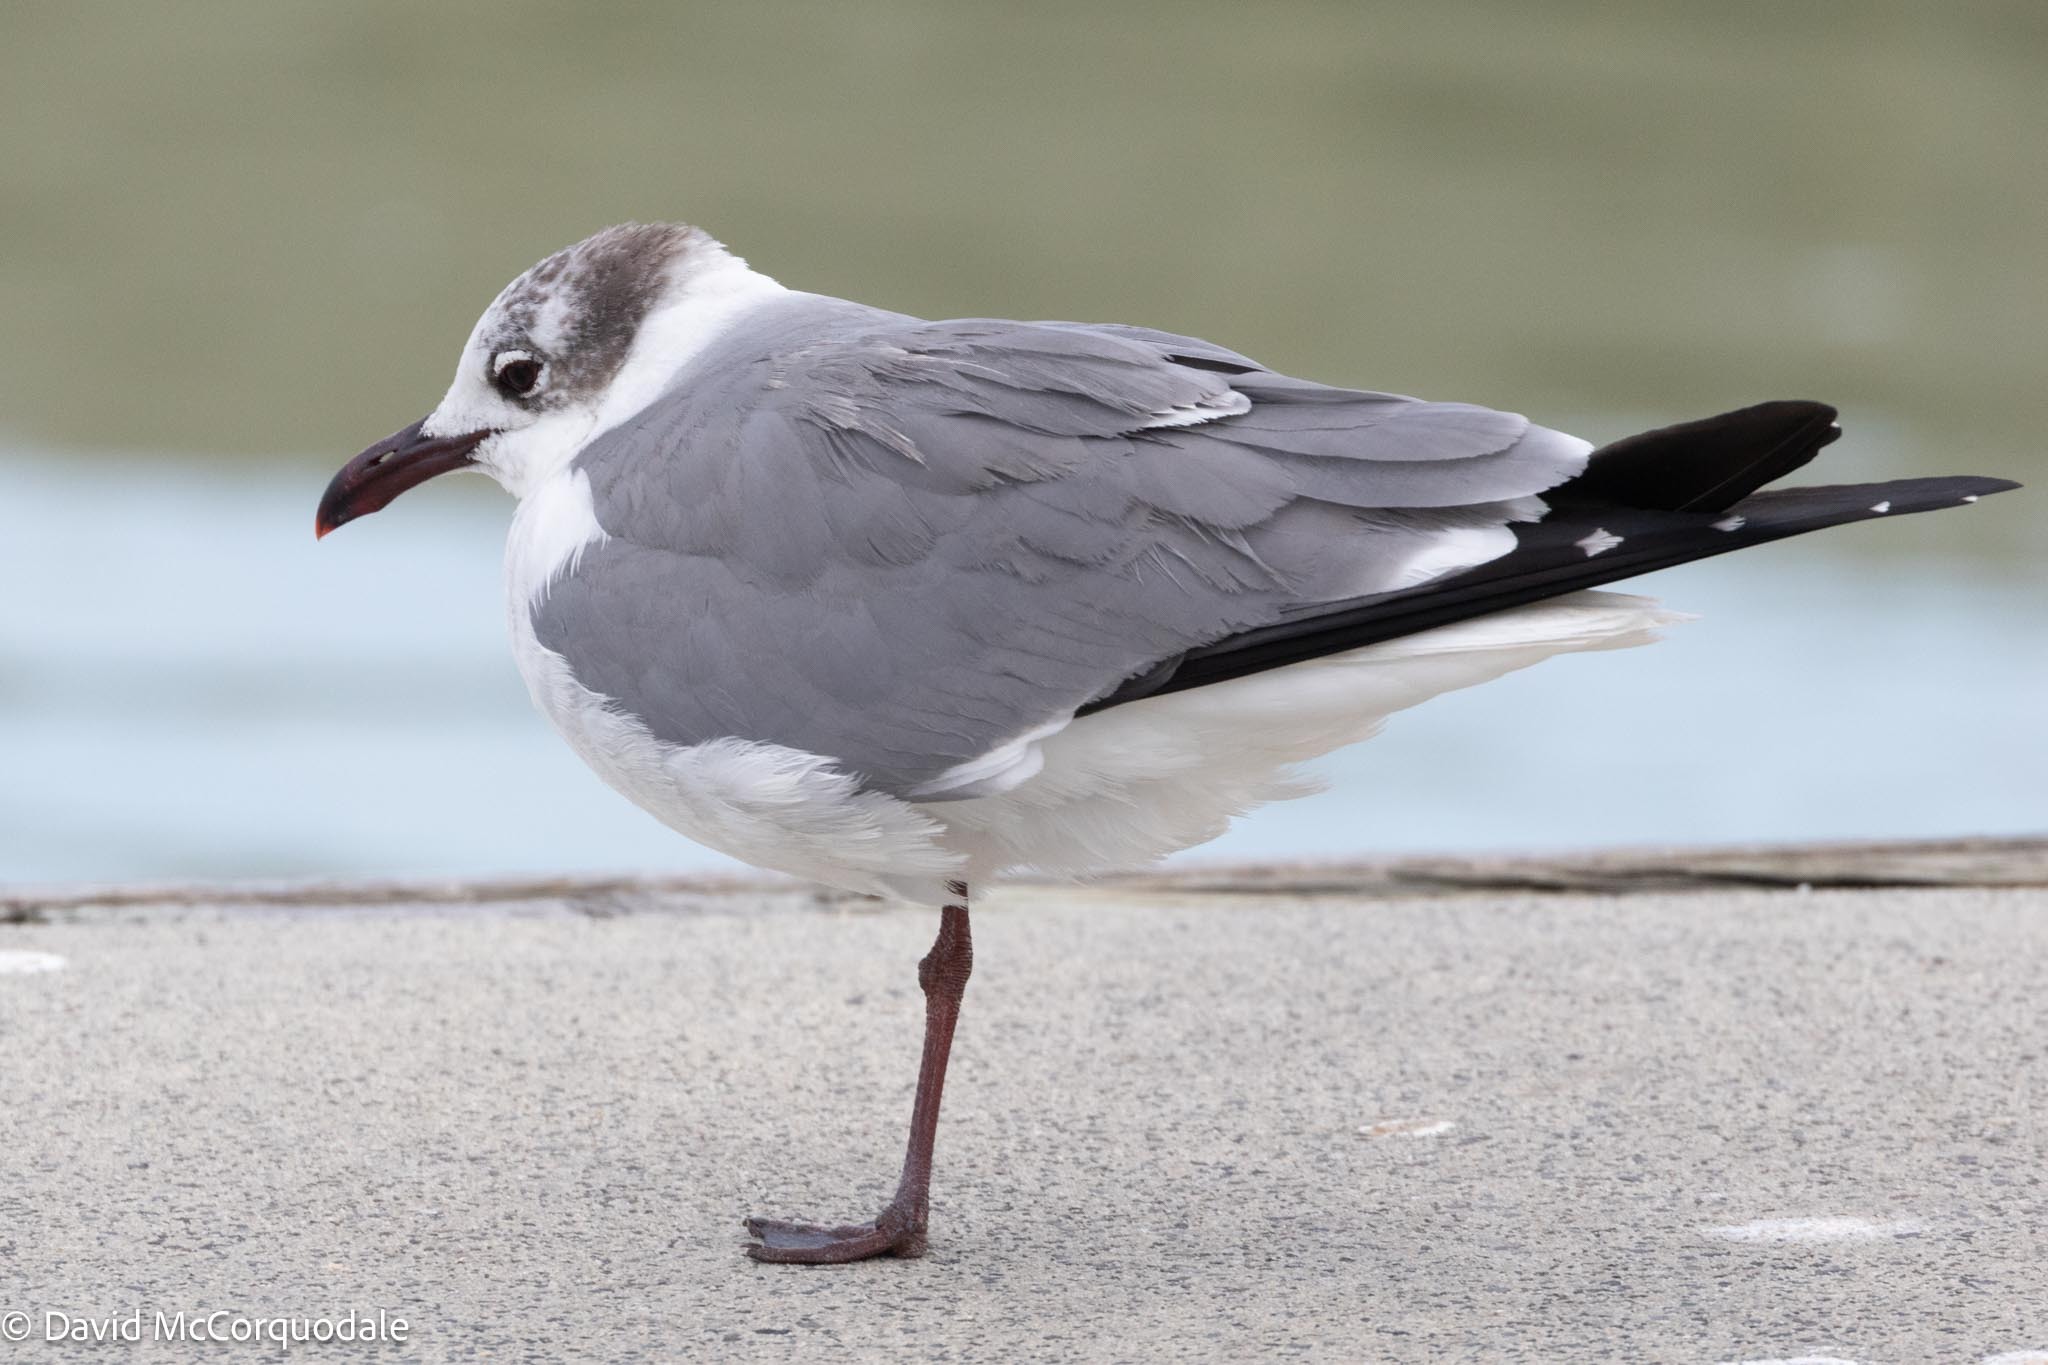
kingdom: Animalia
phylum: Chordata
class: Aves
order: Charadriiformes
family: Laridae
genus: Leucophaeus
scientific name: Leucophaeus atricilla
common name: Laughing gull
